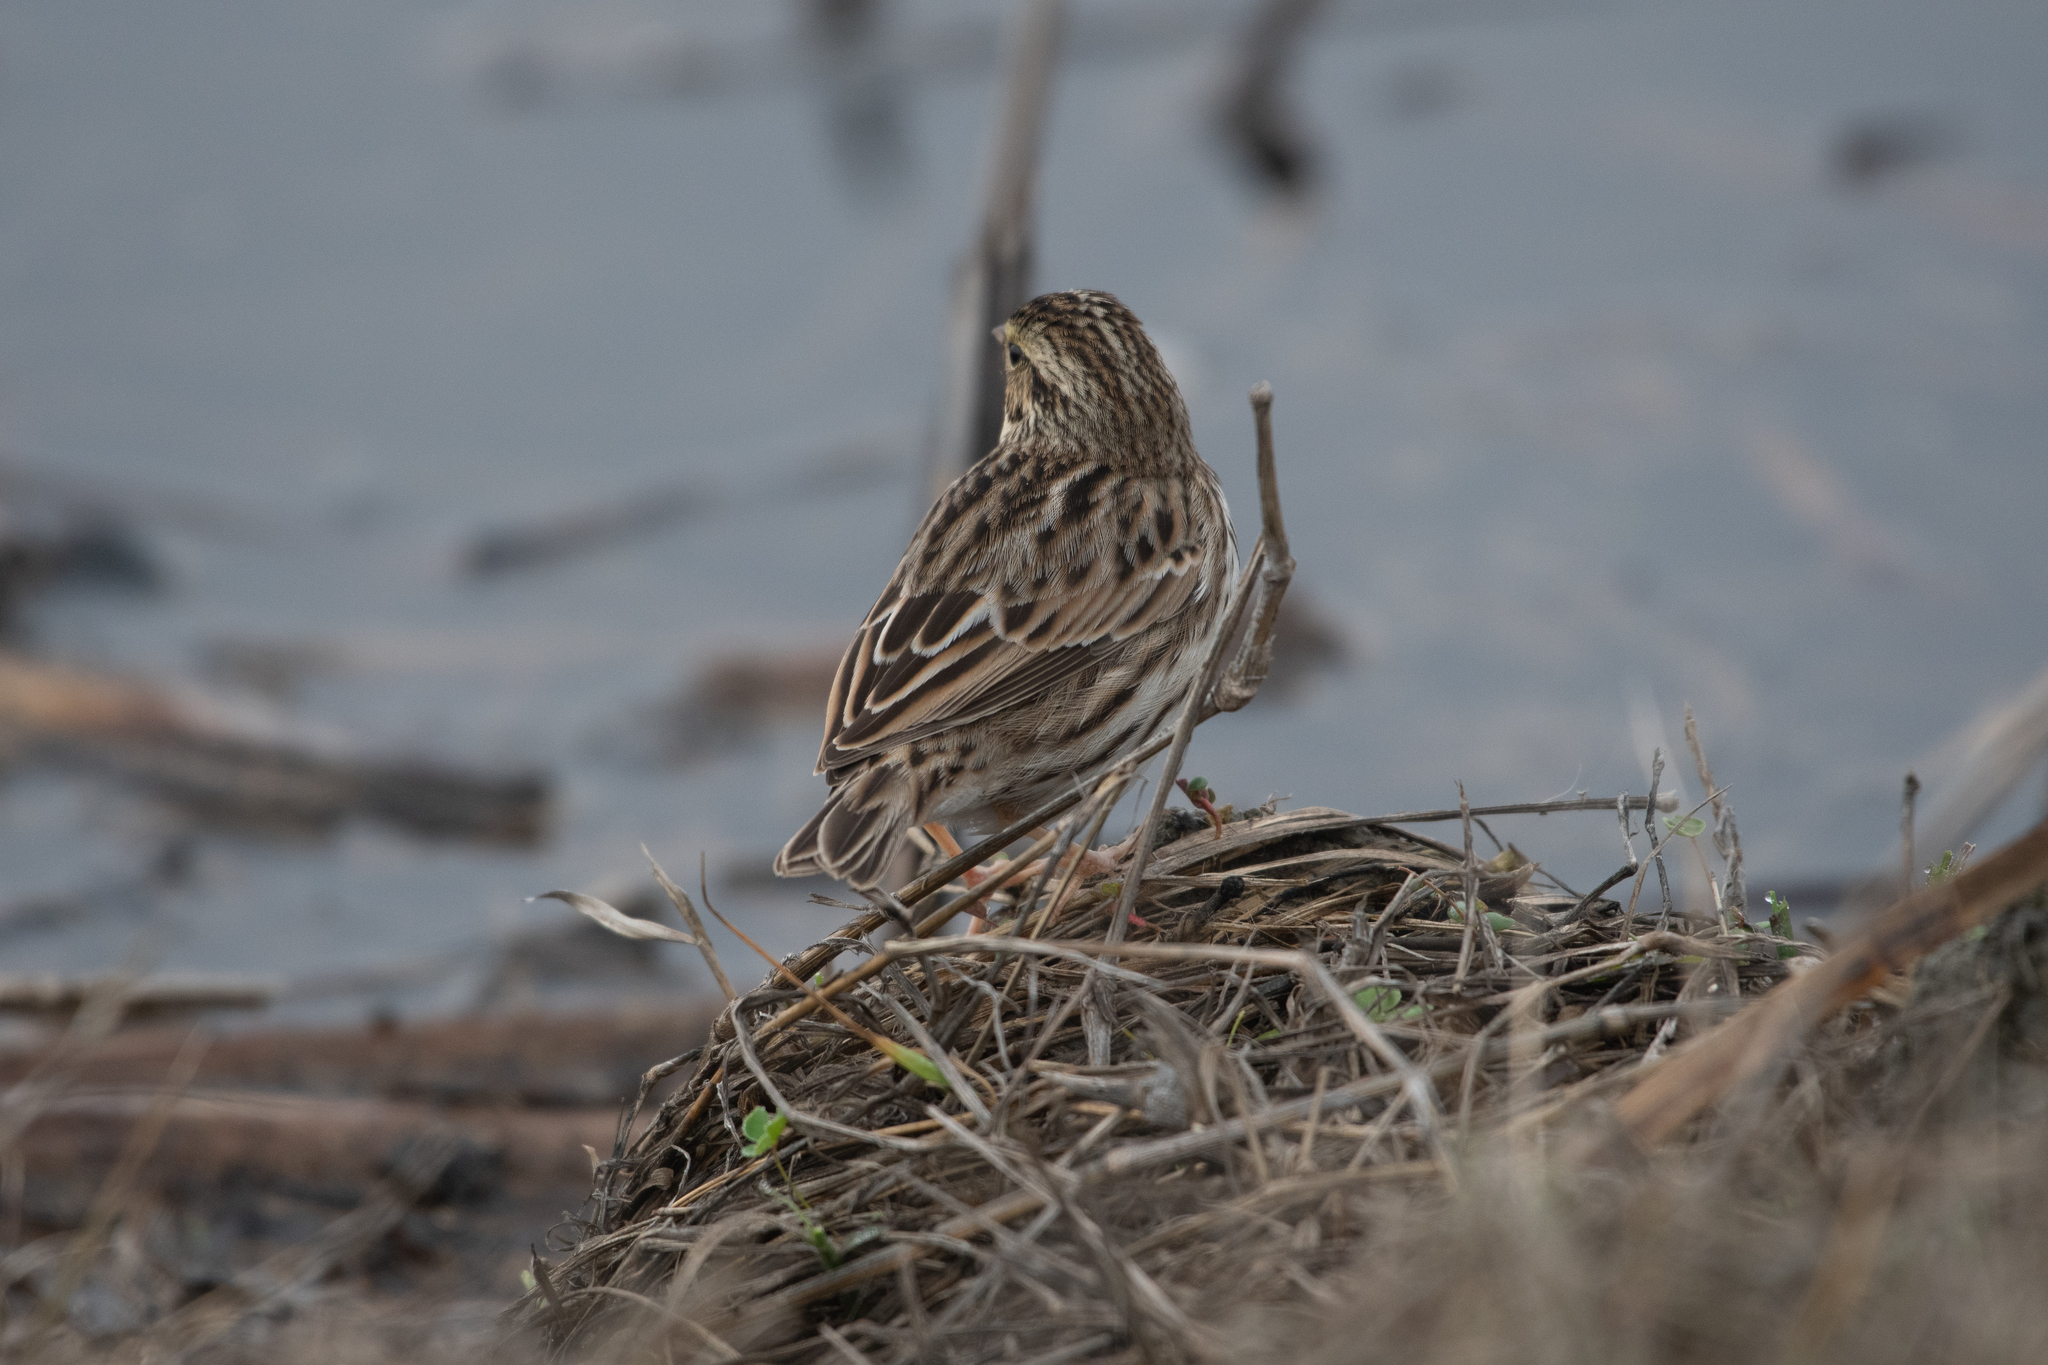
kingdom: Animalia
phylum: Chordata
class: Aves
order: Passeriformes
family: Passerellidae
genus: Passerculus
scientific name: Passerculus sandwichensis
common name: Savannah sparrow
